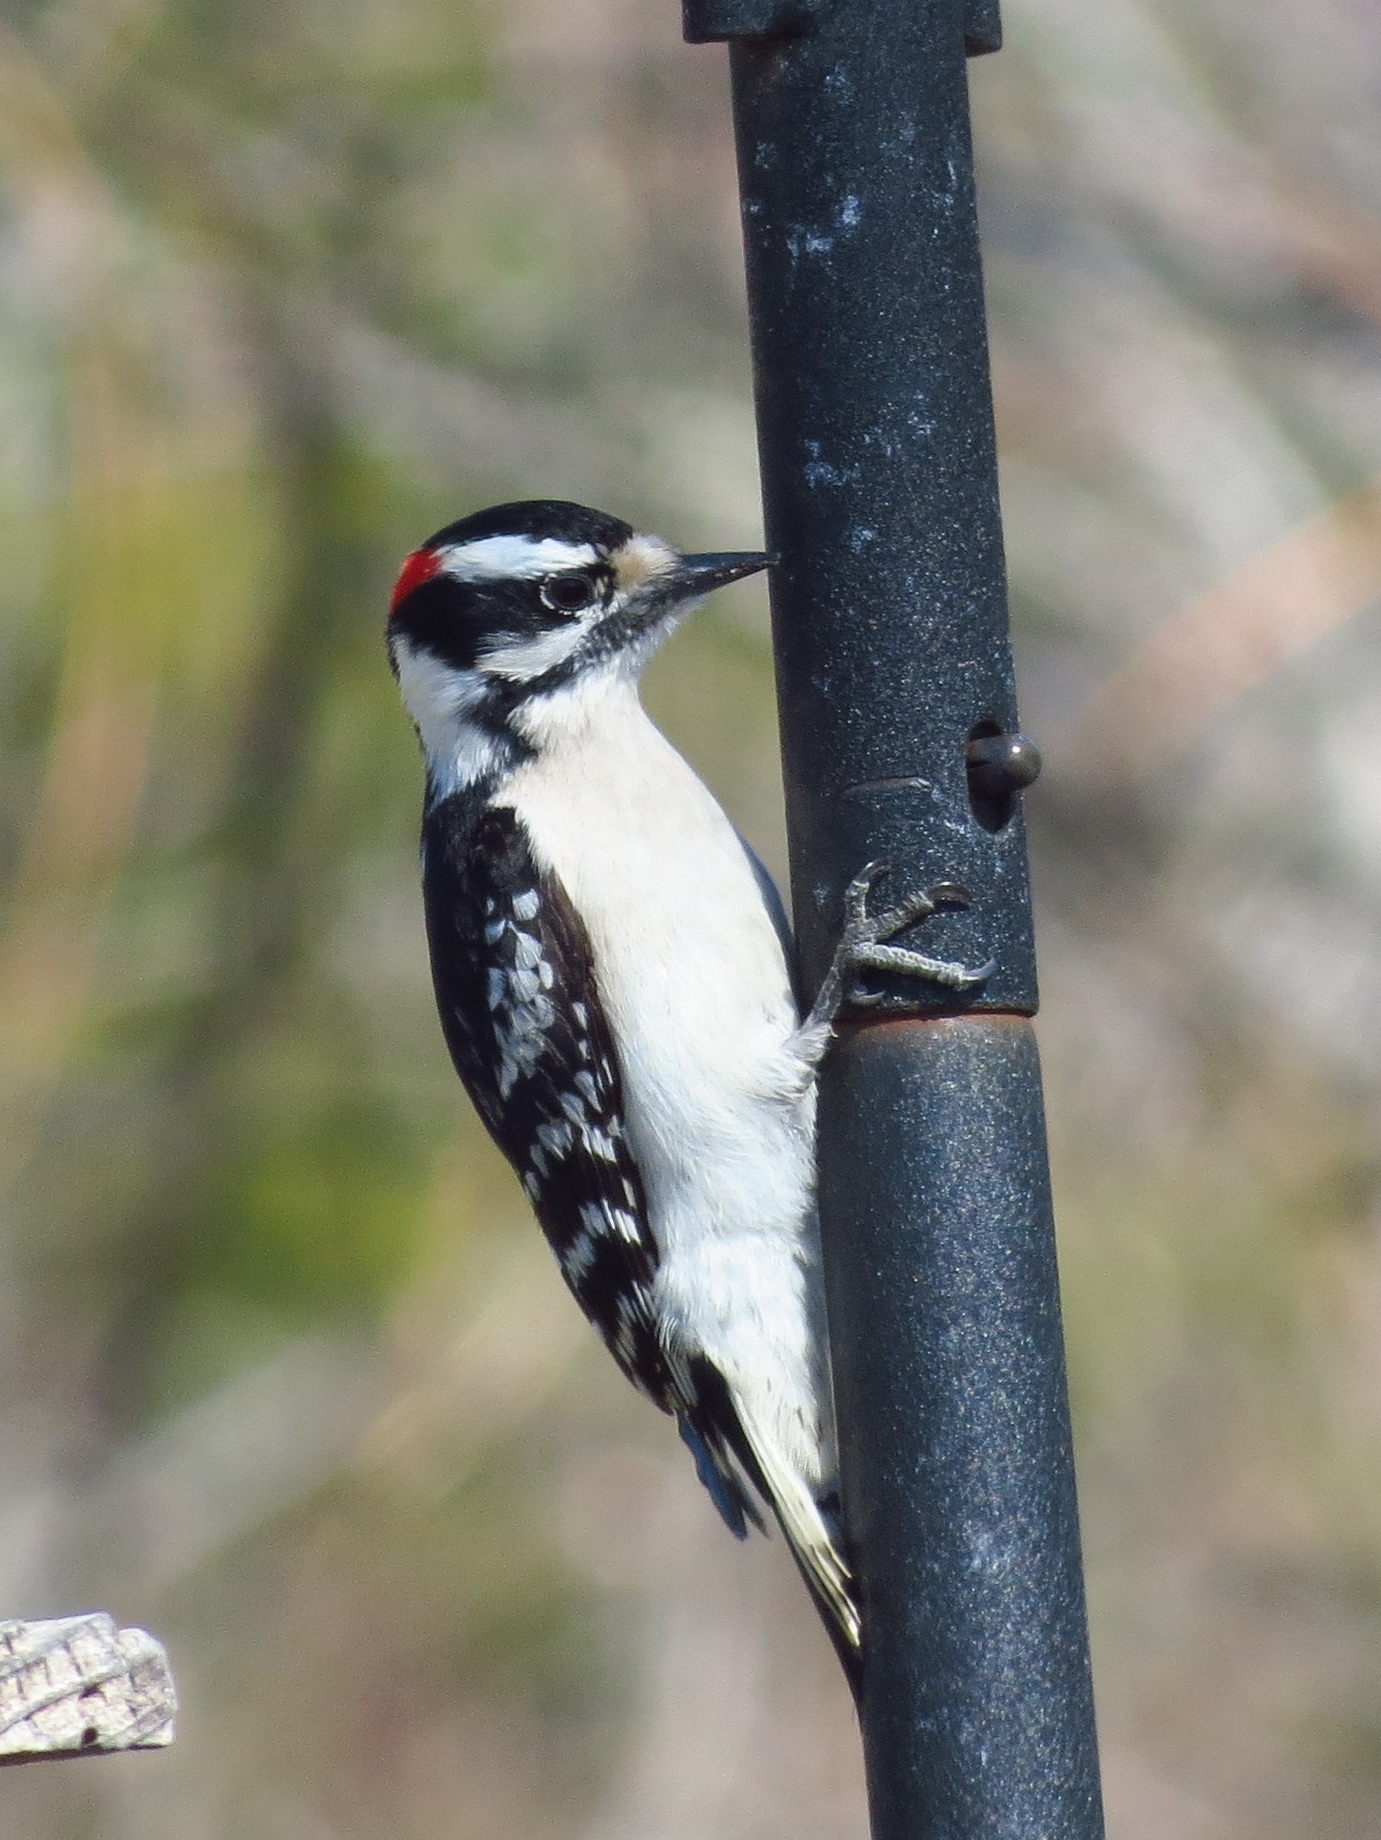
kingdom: Animalia
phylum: Chordata
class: Aves
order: Piciformes
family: Picidae
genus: Dryobates
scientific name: Dryobates pubescens
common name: Downy woodpecker
